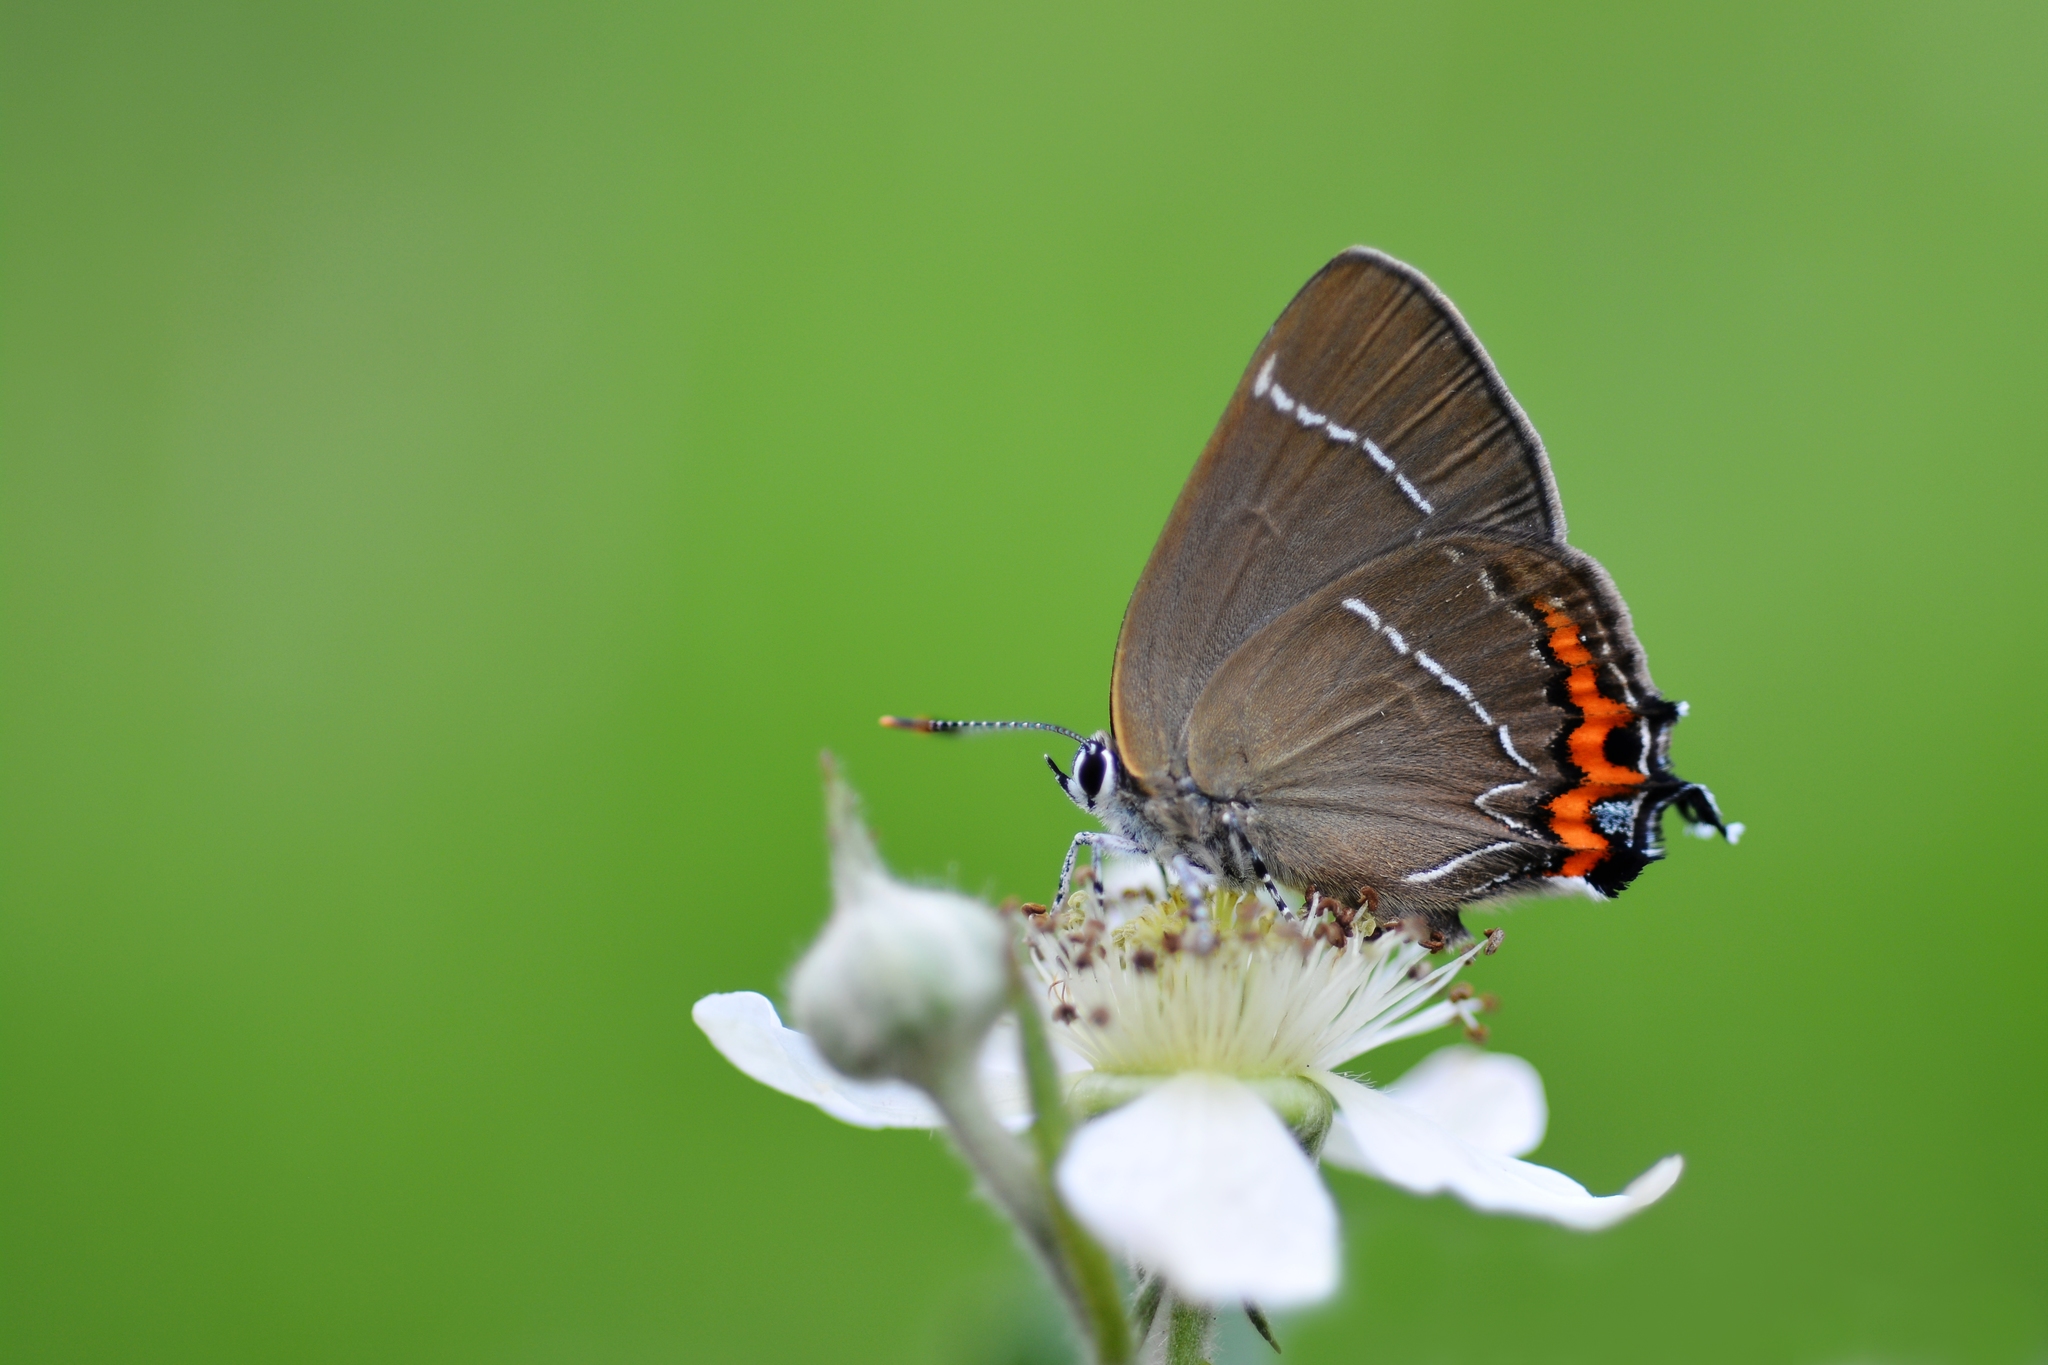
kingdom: Animalia
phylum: Arthropoda
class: Insecta
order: Lepidoptera
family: Lycaenidae
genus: Satyrium
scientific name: Satyrium w-album
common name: White-letter hairstreak
